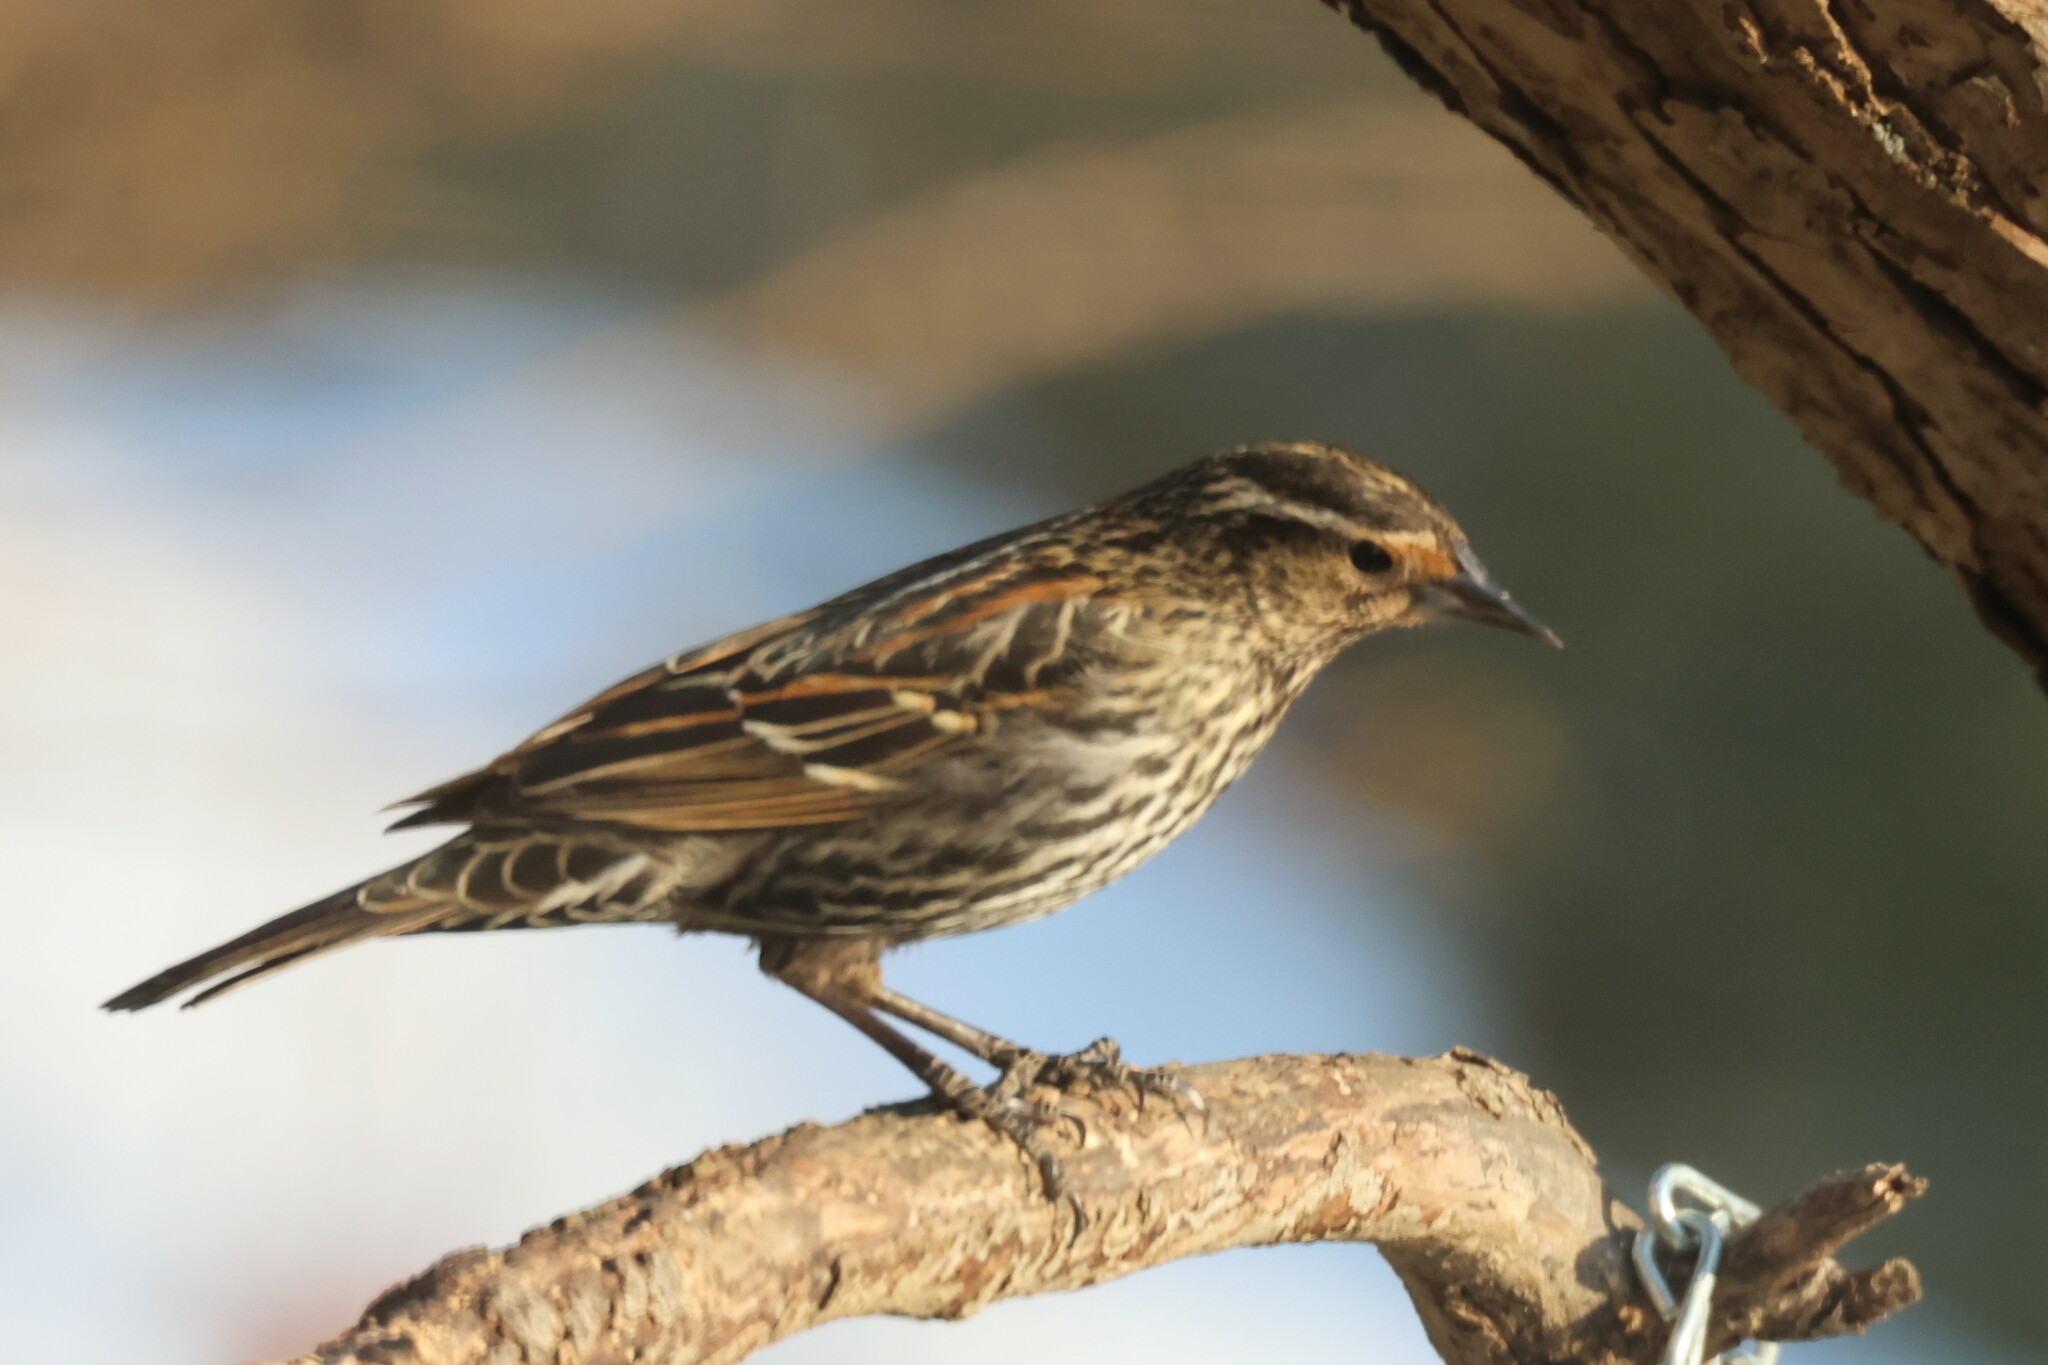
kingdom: Animalia
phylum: Chordata
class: Aves
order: Passeriformes
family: Icteridae
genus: Agelaius
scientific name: Agelaius phoeniceus
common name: Red-winged blackbird
